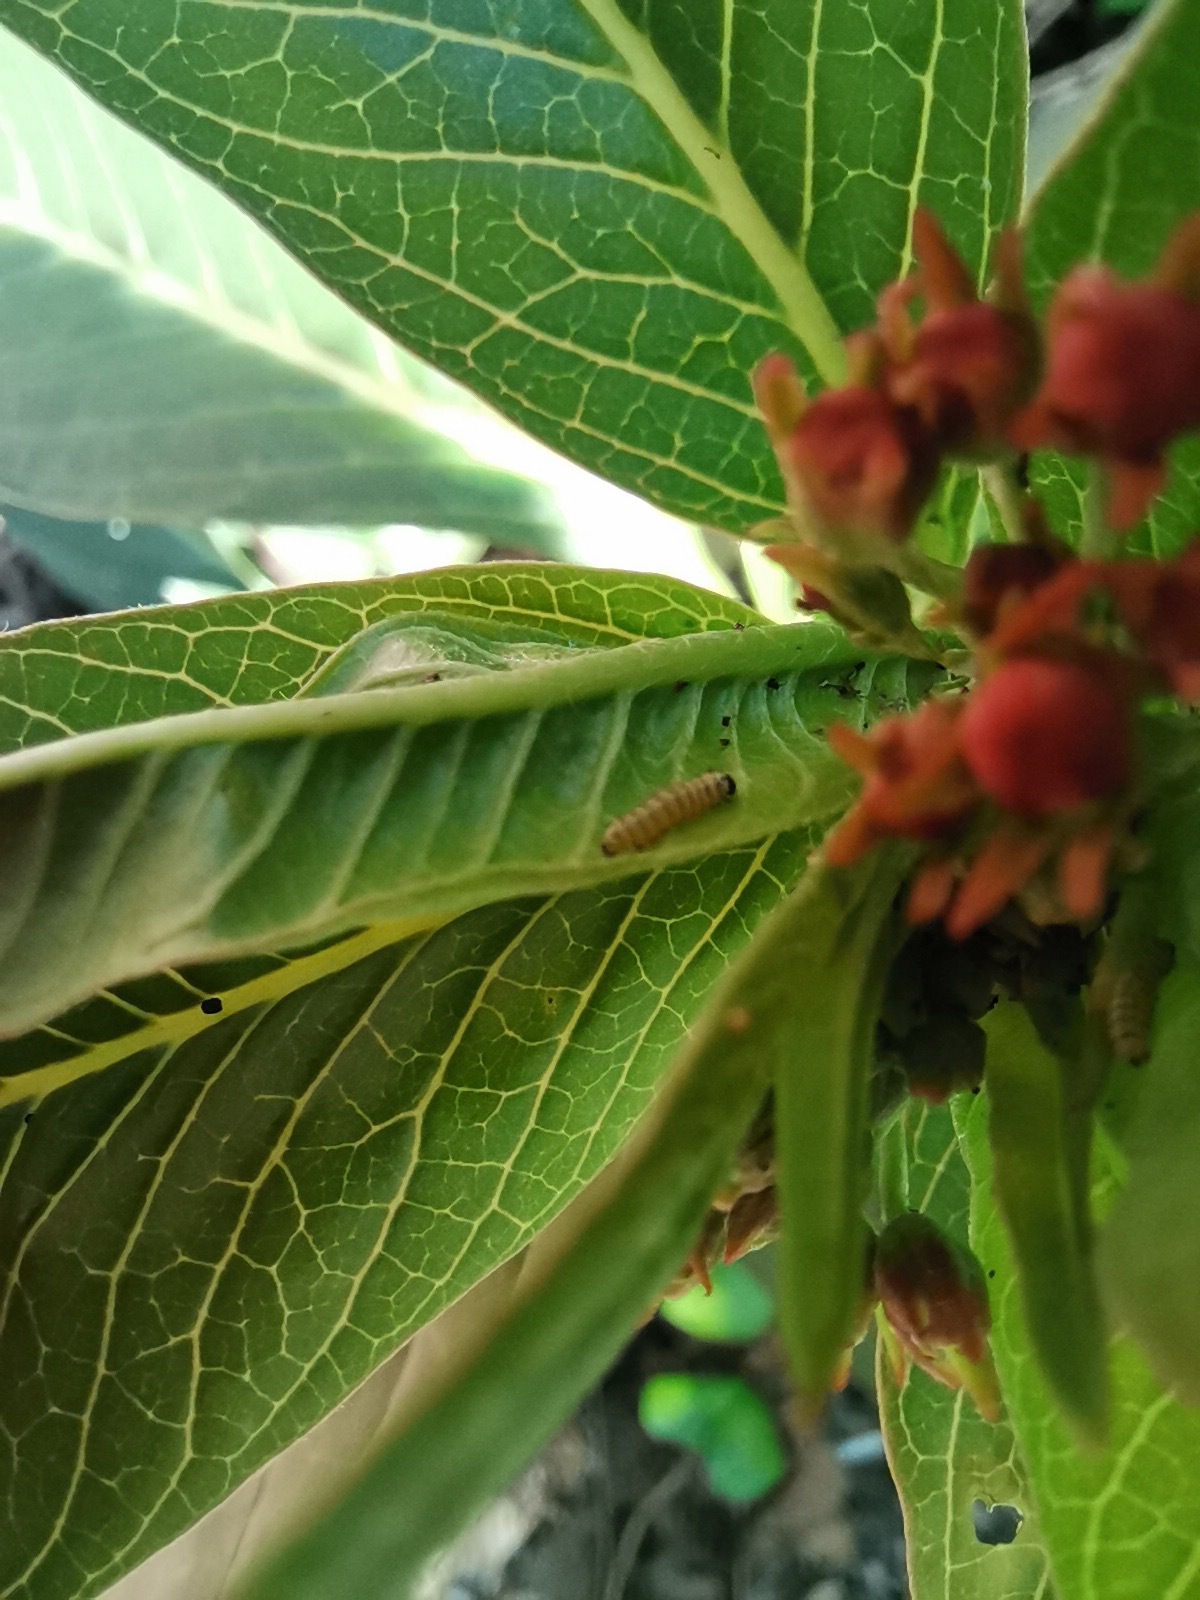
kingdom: Animalia
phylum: Arthropoda
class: Insecta
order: Lepidoptera
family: Nymphalidae
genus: Danaus
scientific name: Danaus plexippus
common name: Monarch
